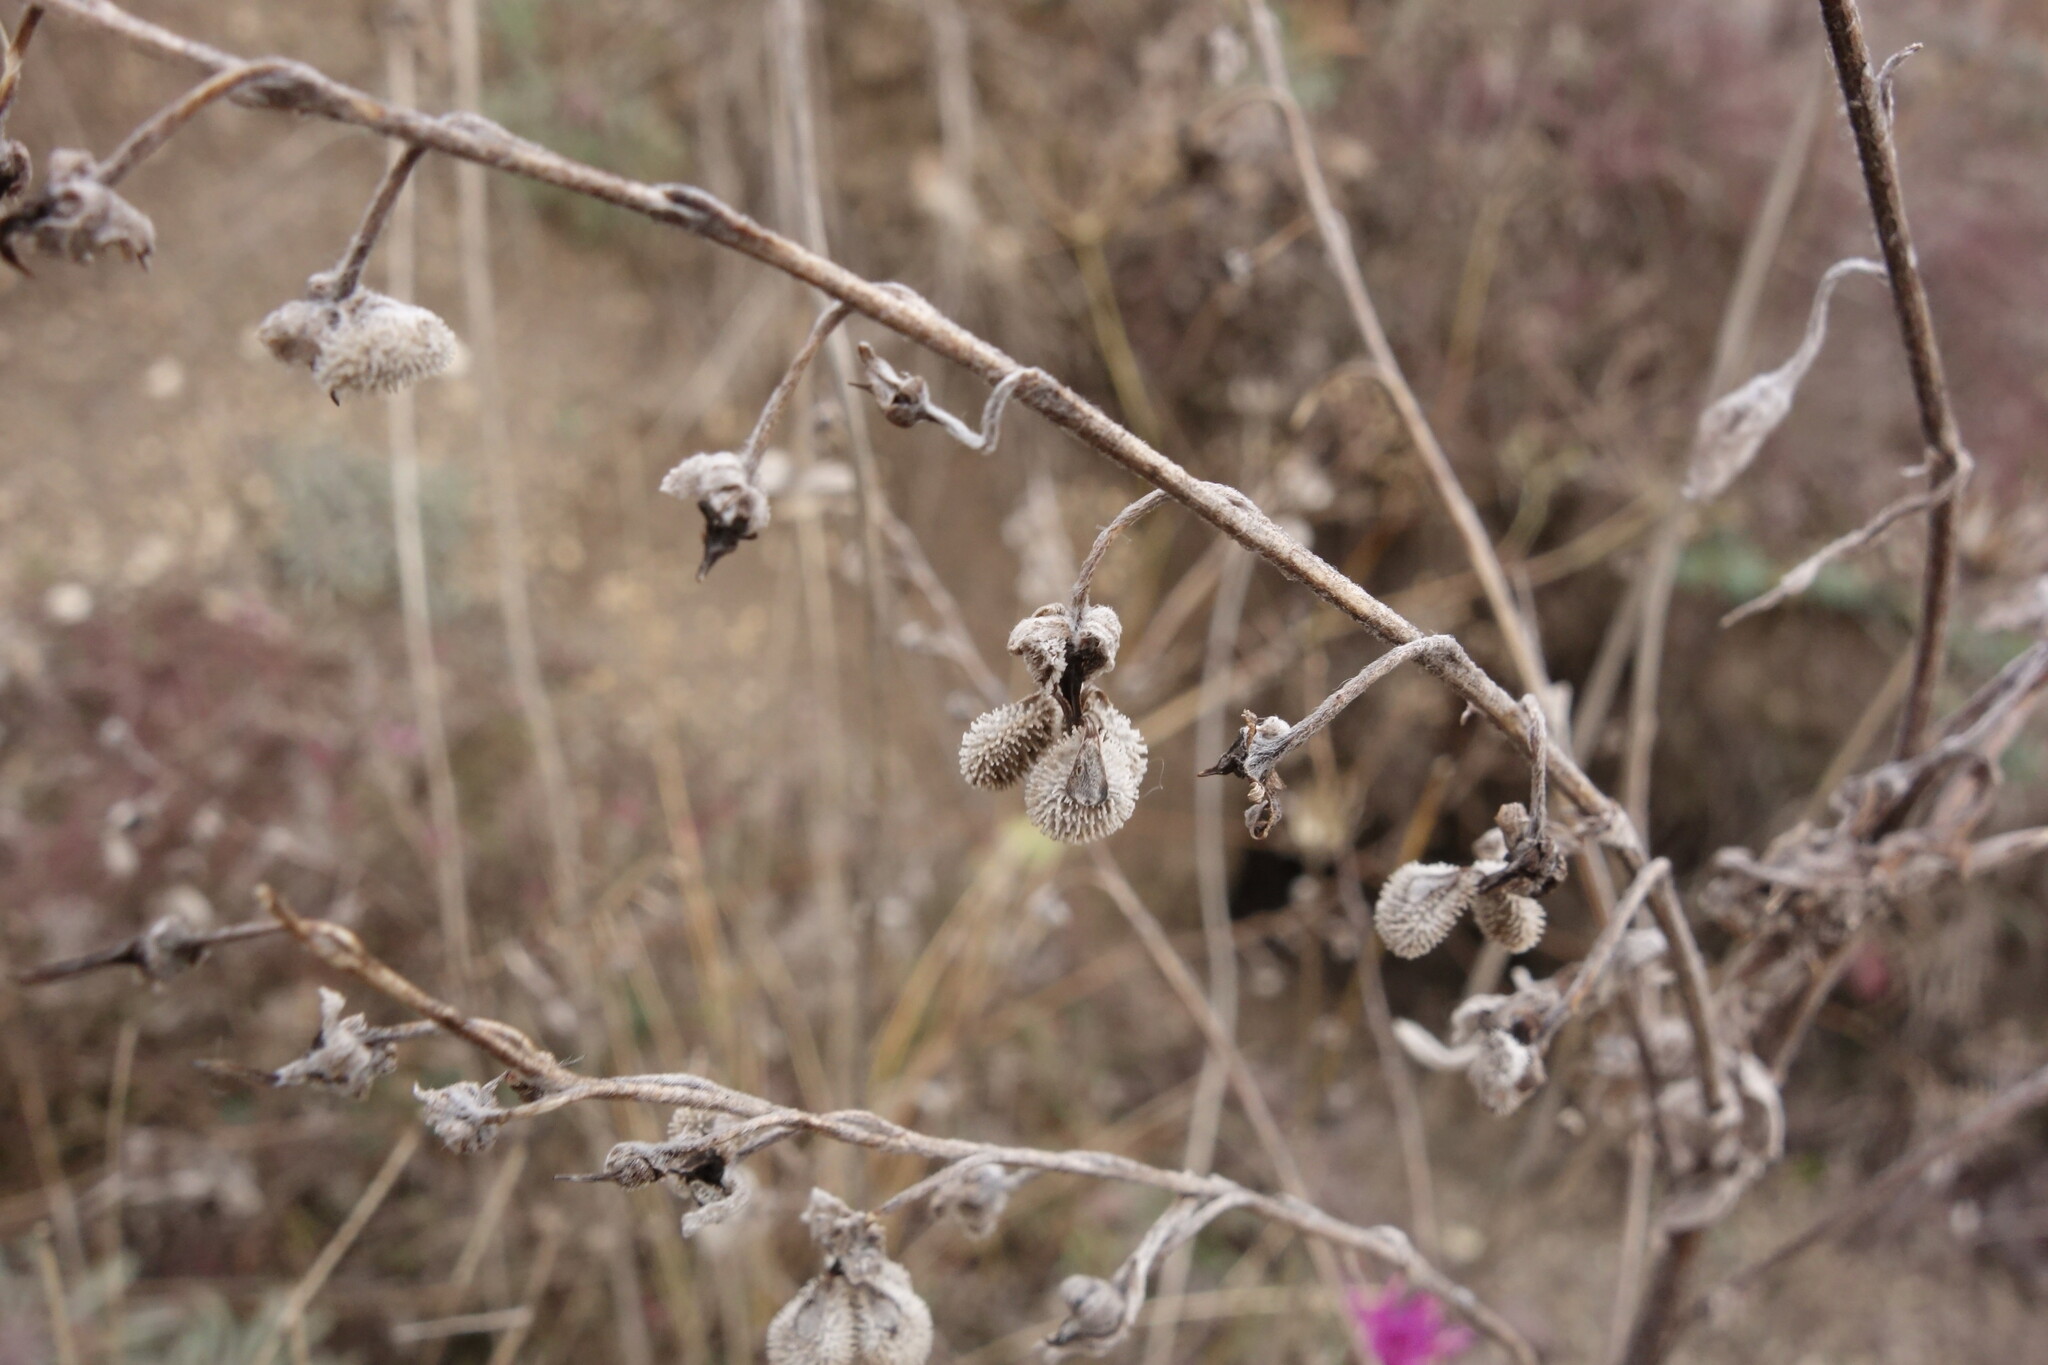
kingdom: Plantae
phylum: Tracheophyta
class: Magnoliopsida
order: Boraginales
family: Boraginaceae
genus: Cynoglossum
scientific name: Cynoglossum officinale
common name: Hound's-tongue
